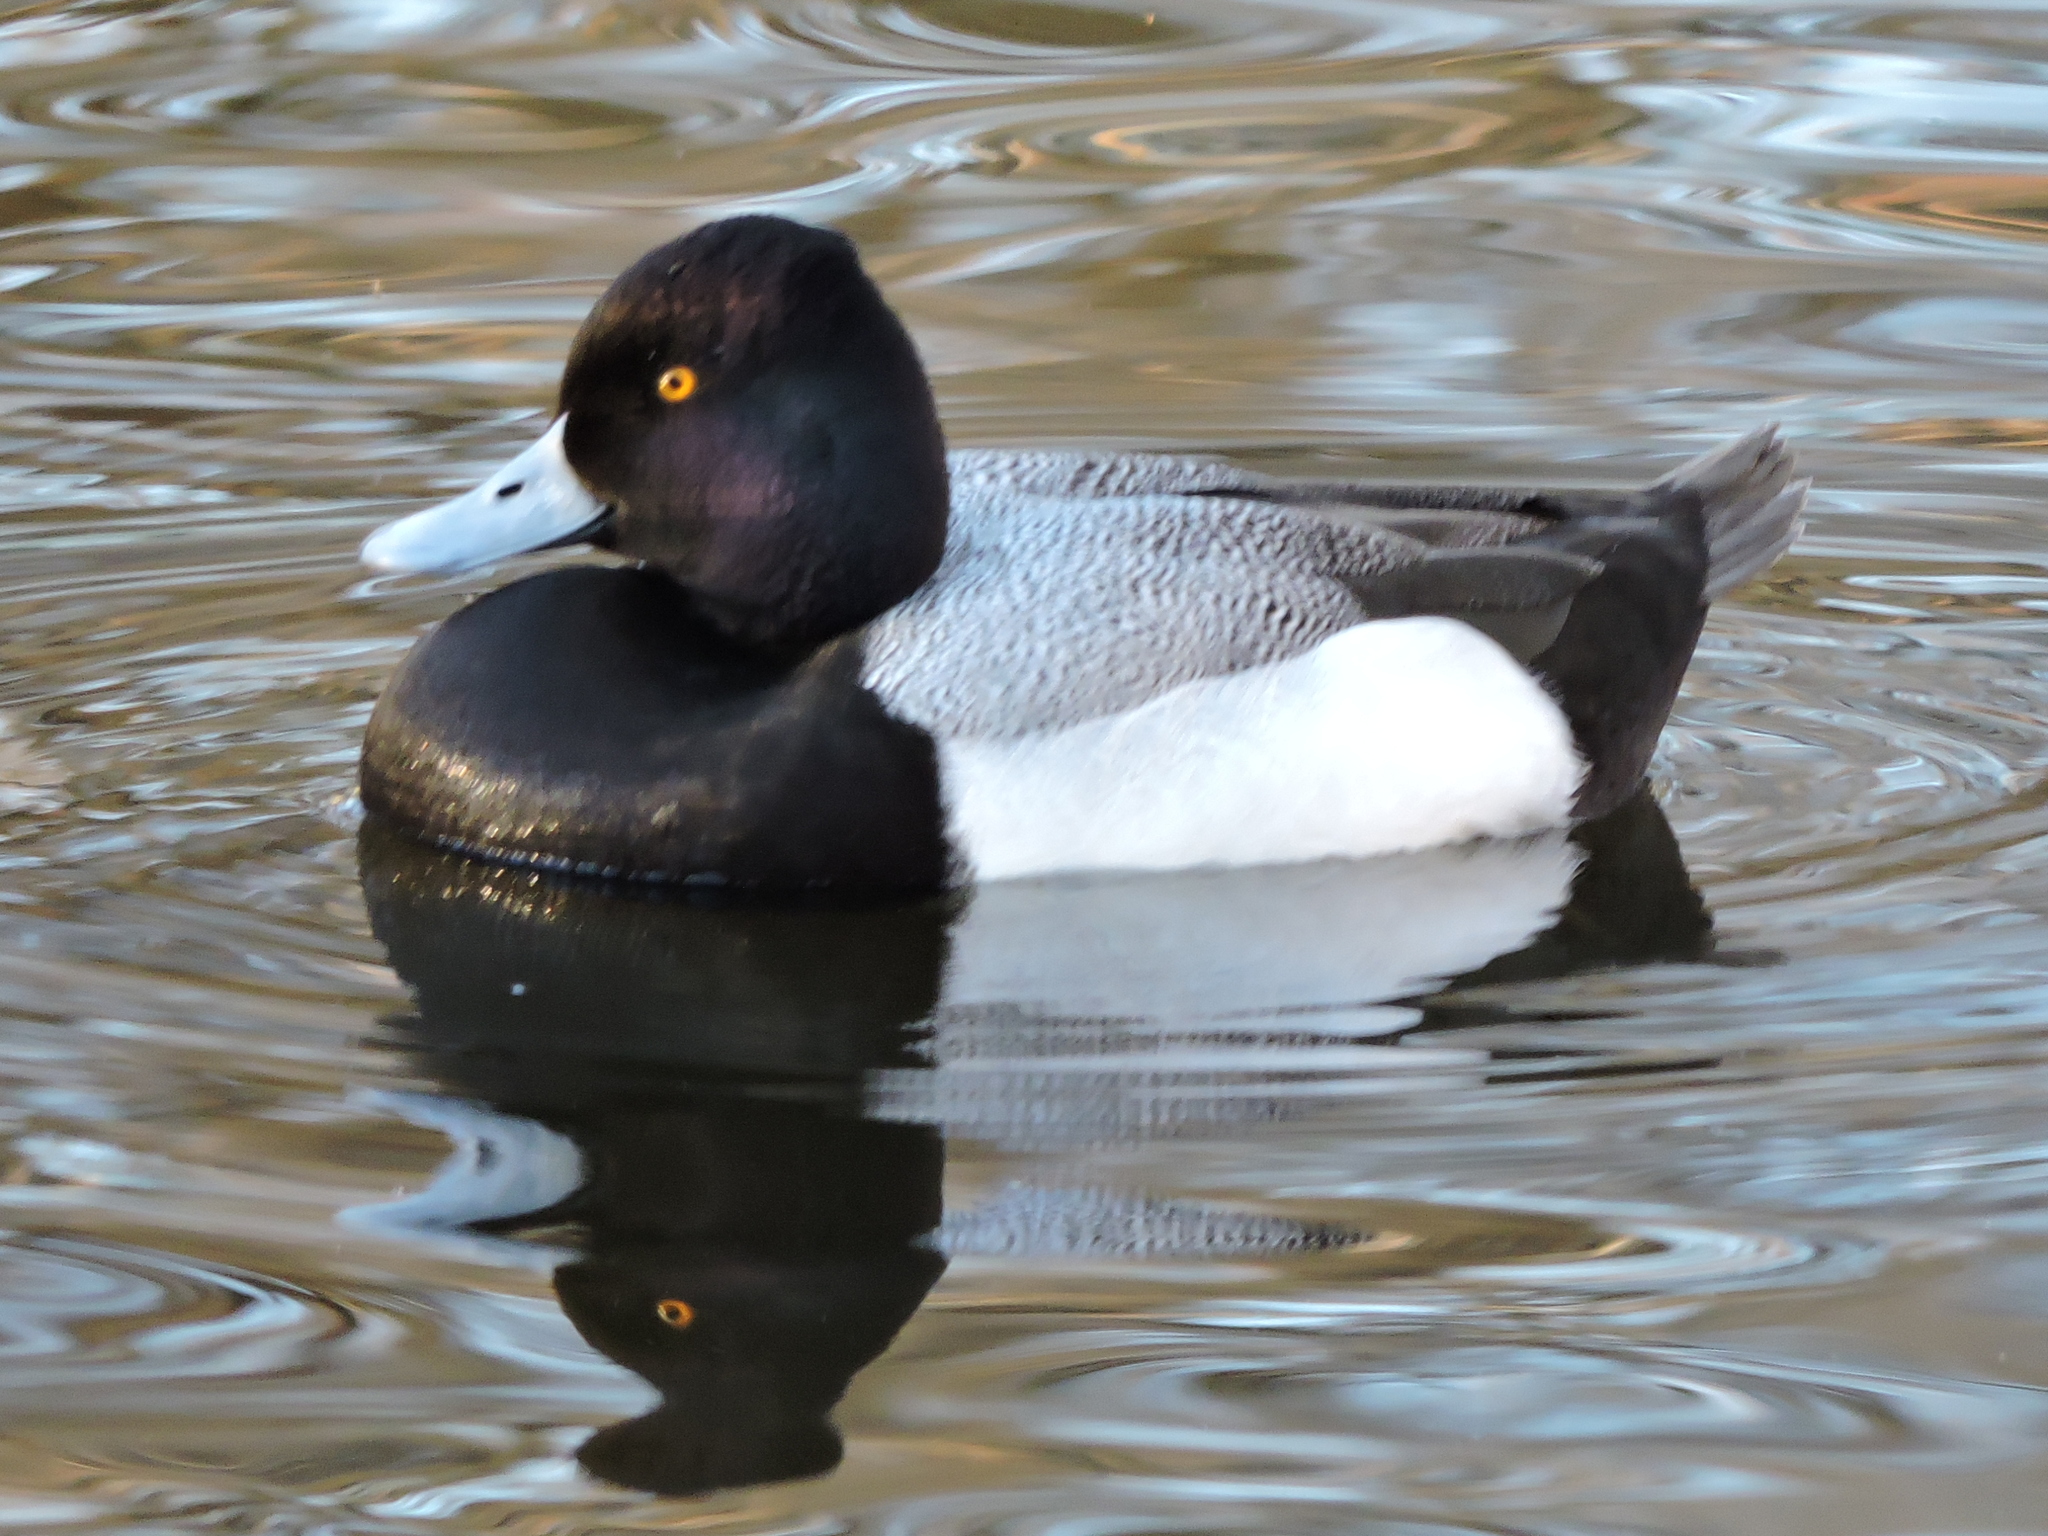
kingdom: Animalia
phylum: Chordata
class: Aves
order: Anseriformes
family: Anatidae
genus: Aythya
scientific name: Aythya affinis
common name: Lesser scaup
